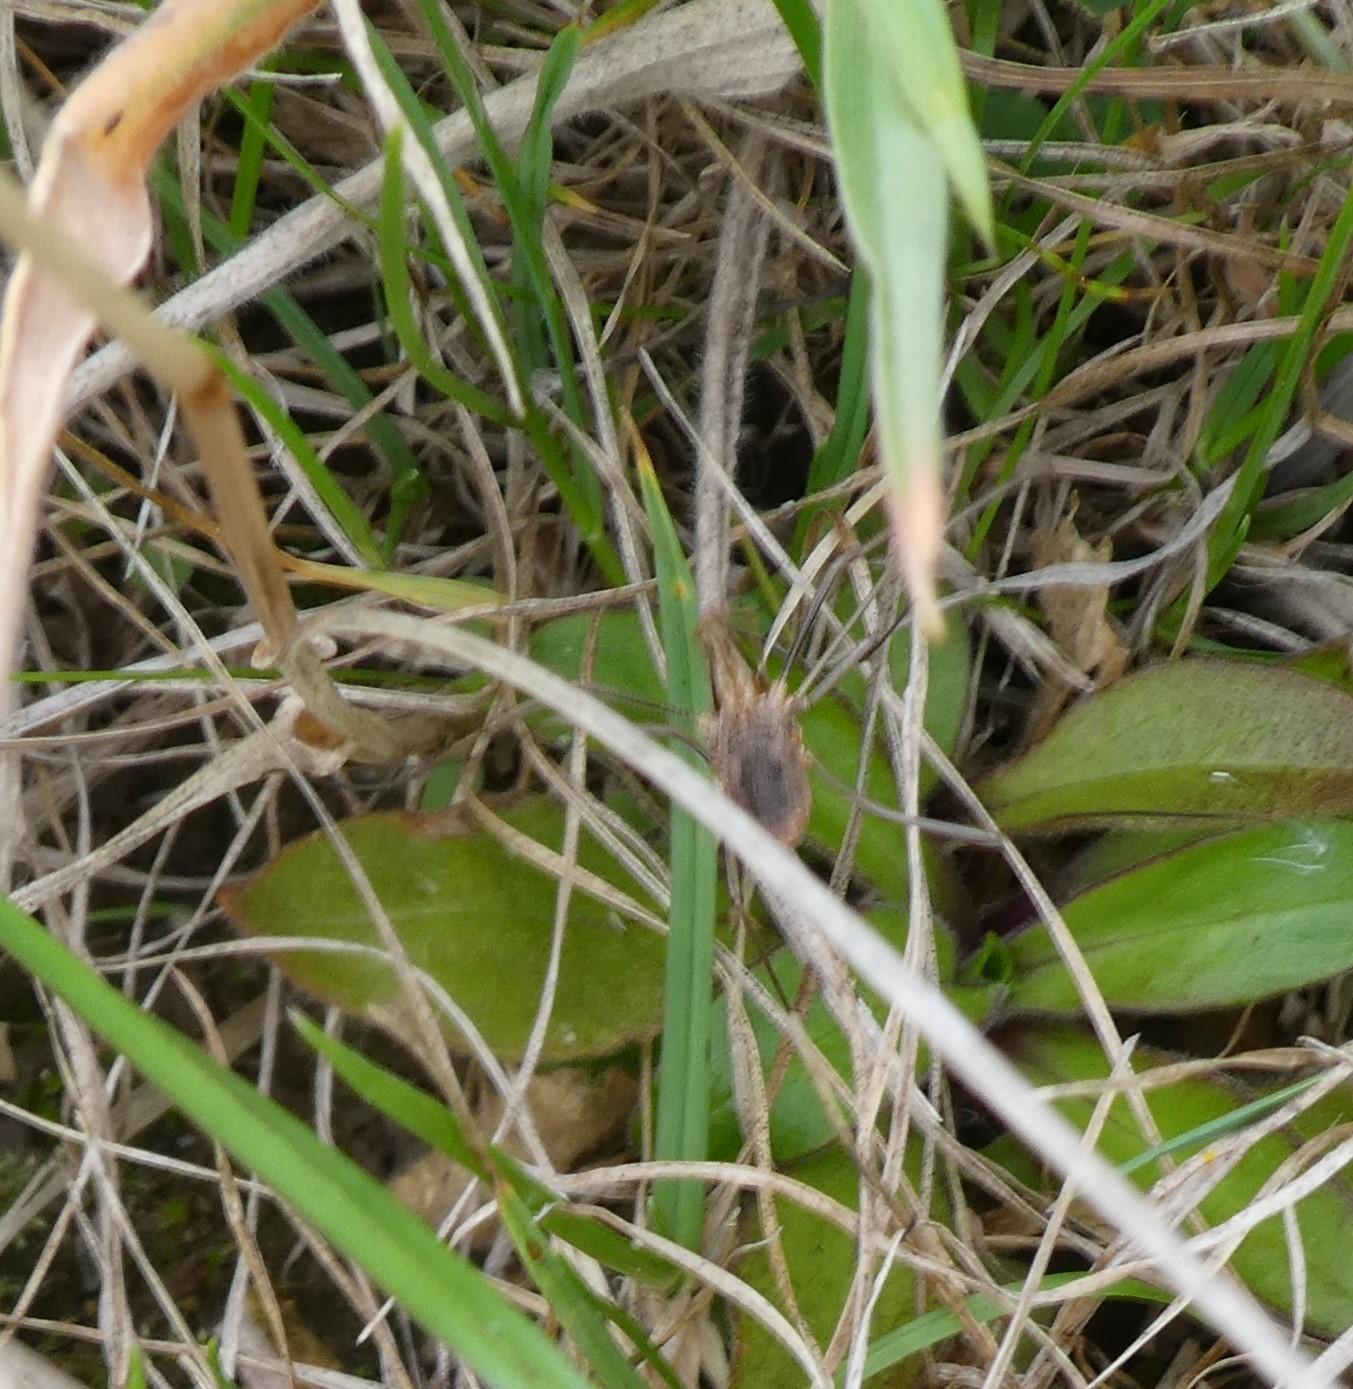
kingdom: Animalia
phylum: Arthropoda
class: Arachnida
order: Opiliones
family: Phalangiidae
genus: Phalangium
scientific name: Phalangium opilio
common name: Daddy longleg
